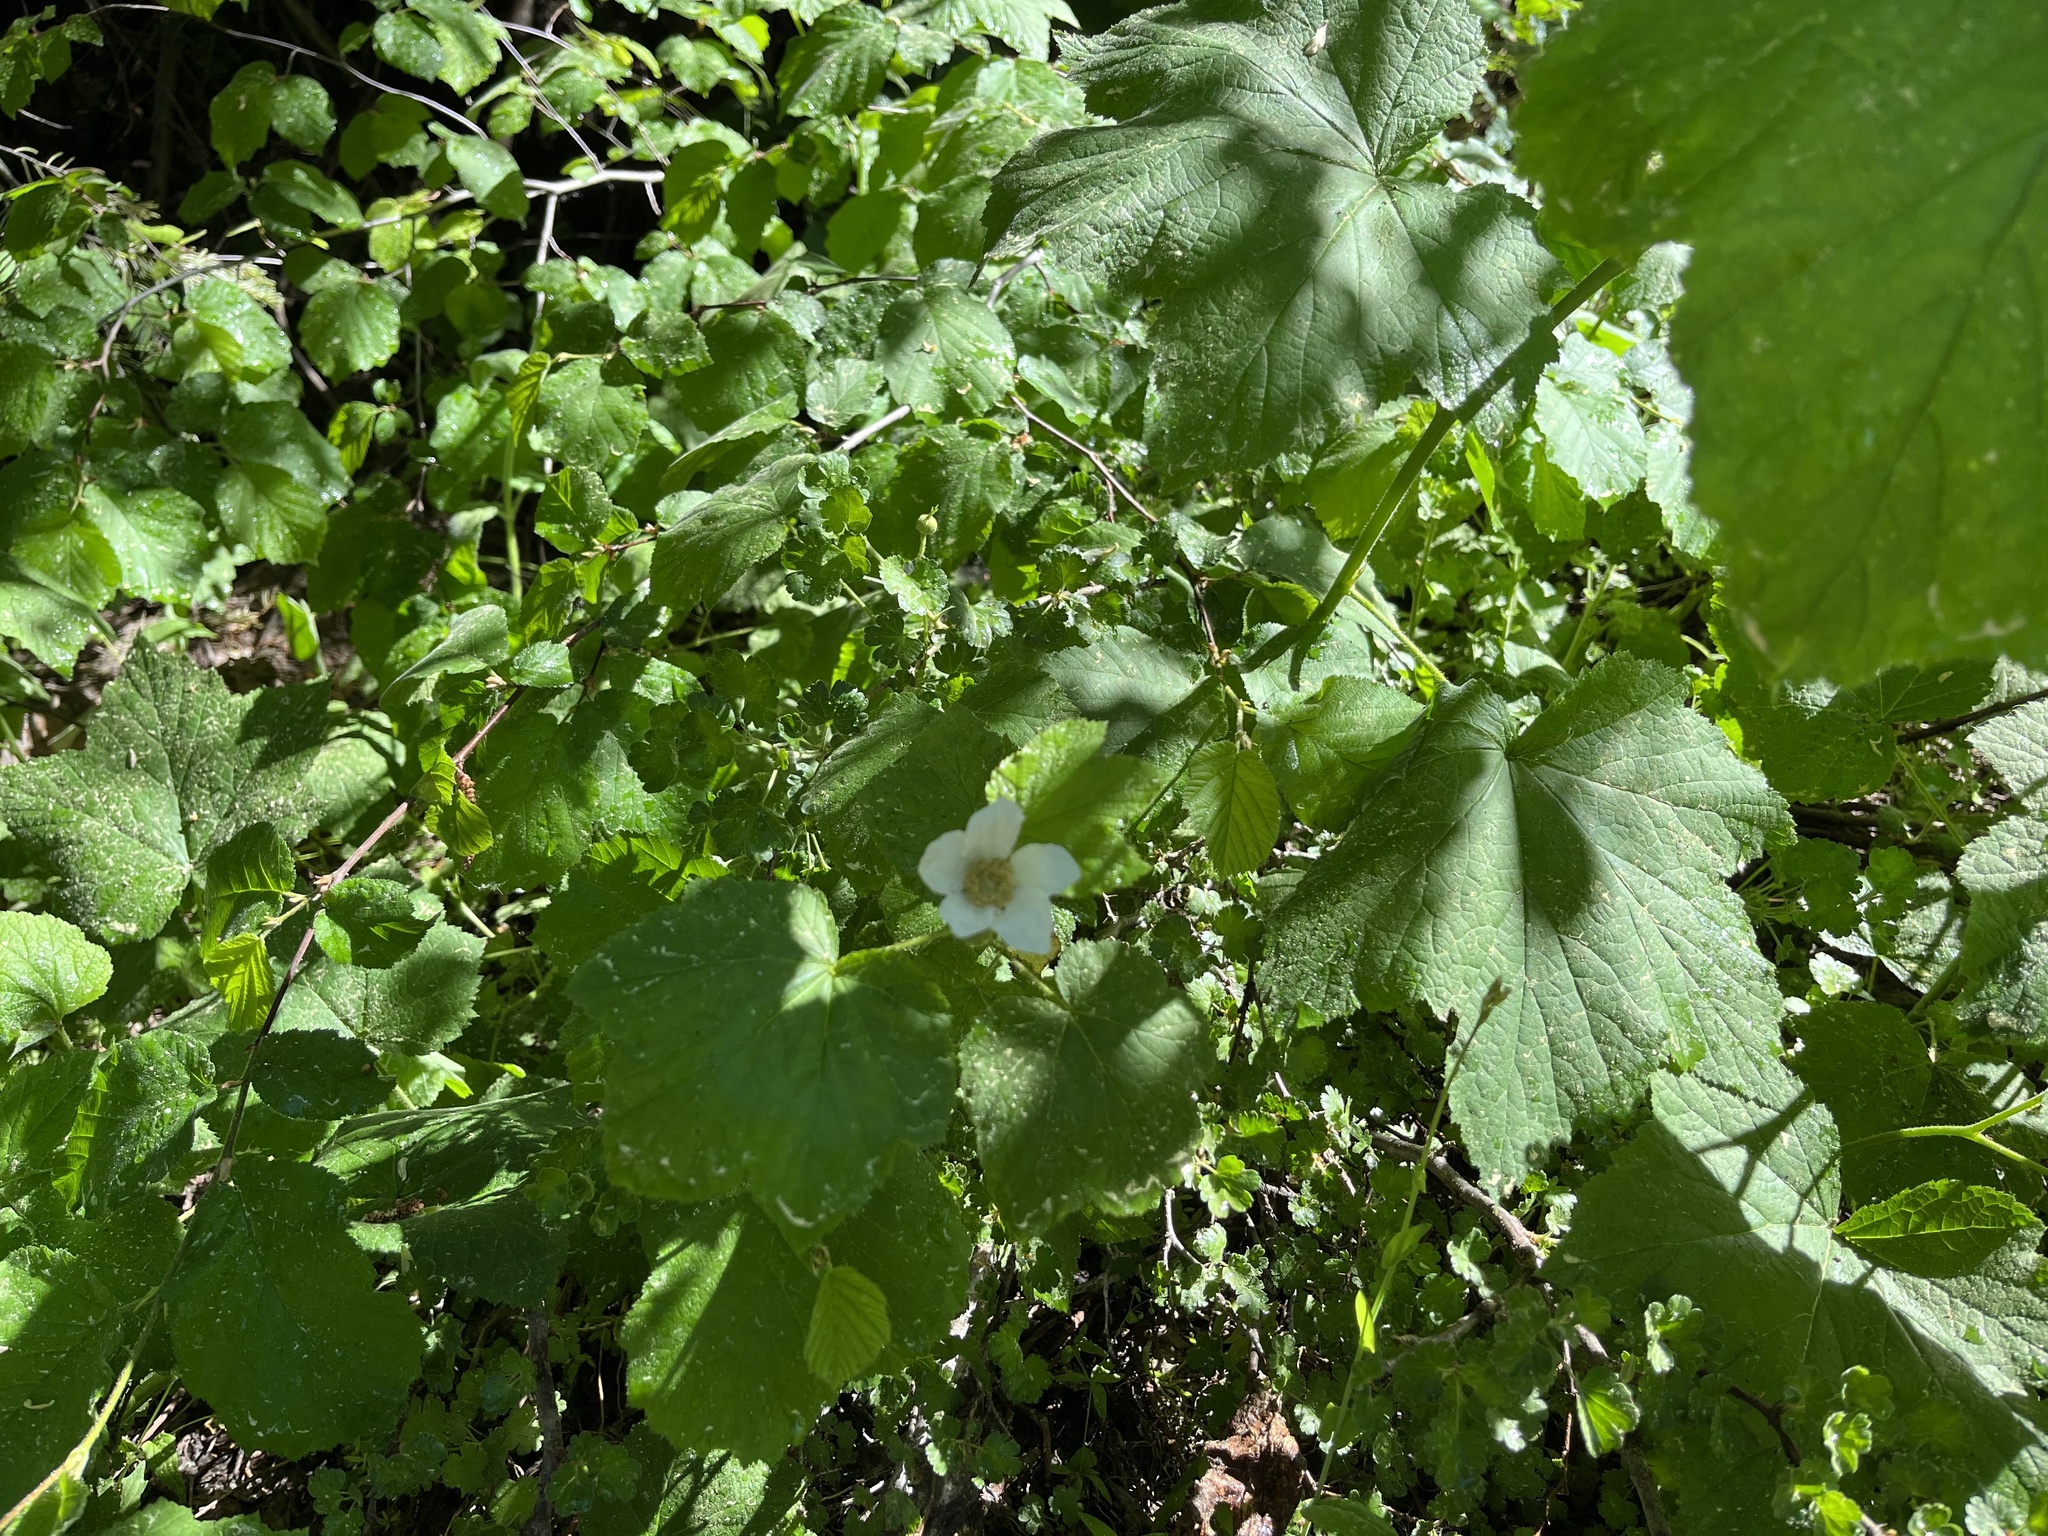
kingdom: Plantae
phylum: Tracheophyta
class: Magnoliopsida
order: Rosales
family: Rosaceae
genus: Rubus
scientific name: Rubus parviflorus
